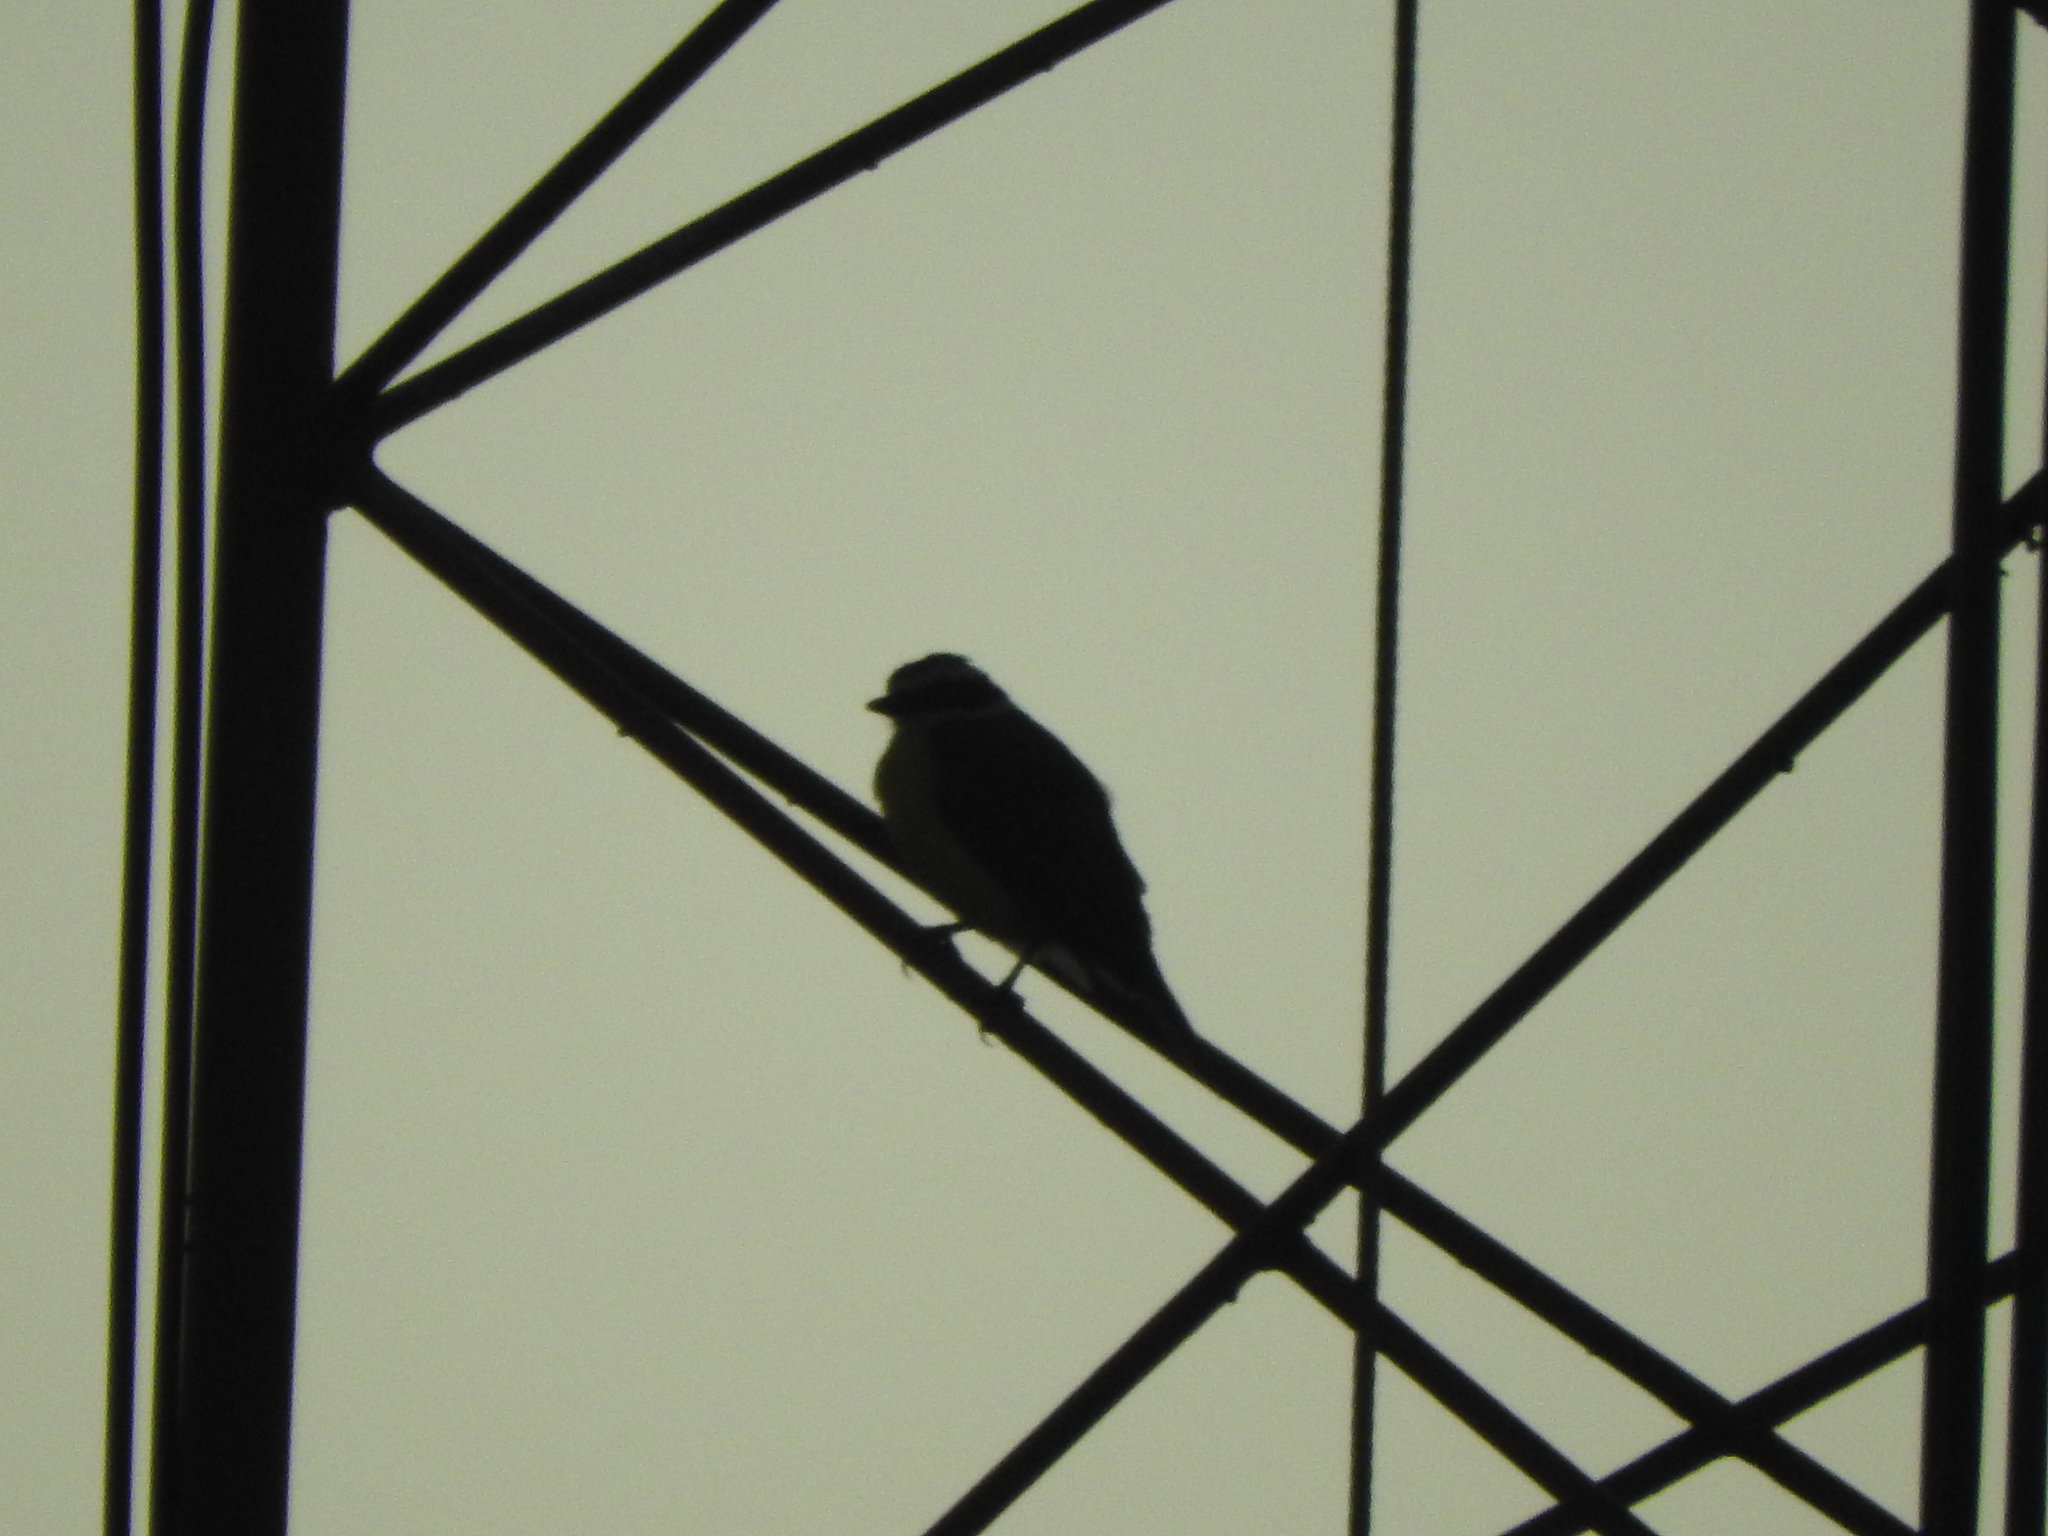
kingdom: Animalia
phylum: Chordata
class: Aves
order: Passeriformes
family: Tyrannidae
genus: Pitangus
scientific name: Pitangus sulphuratus
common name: Great kiskadee
